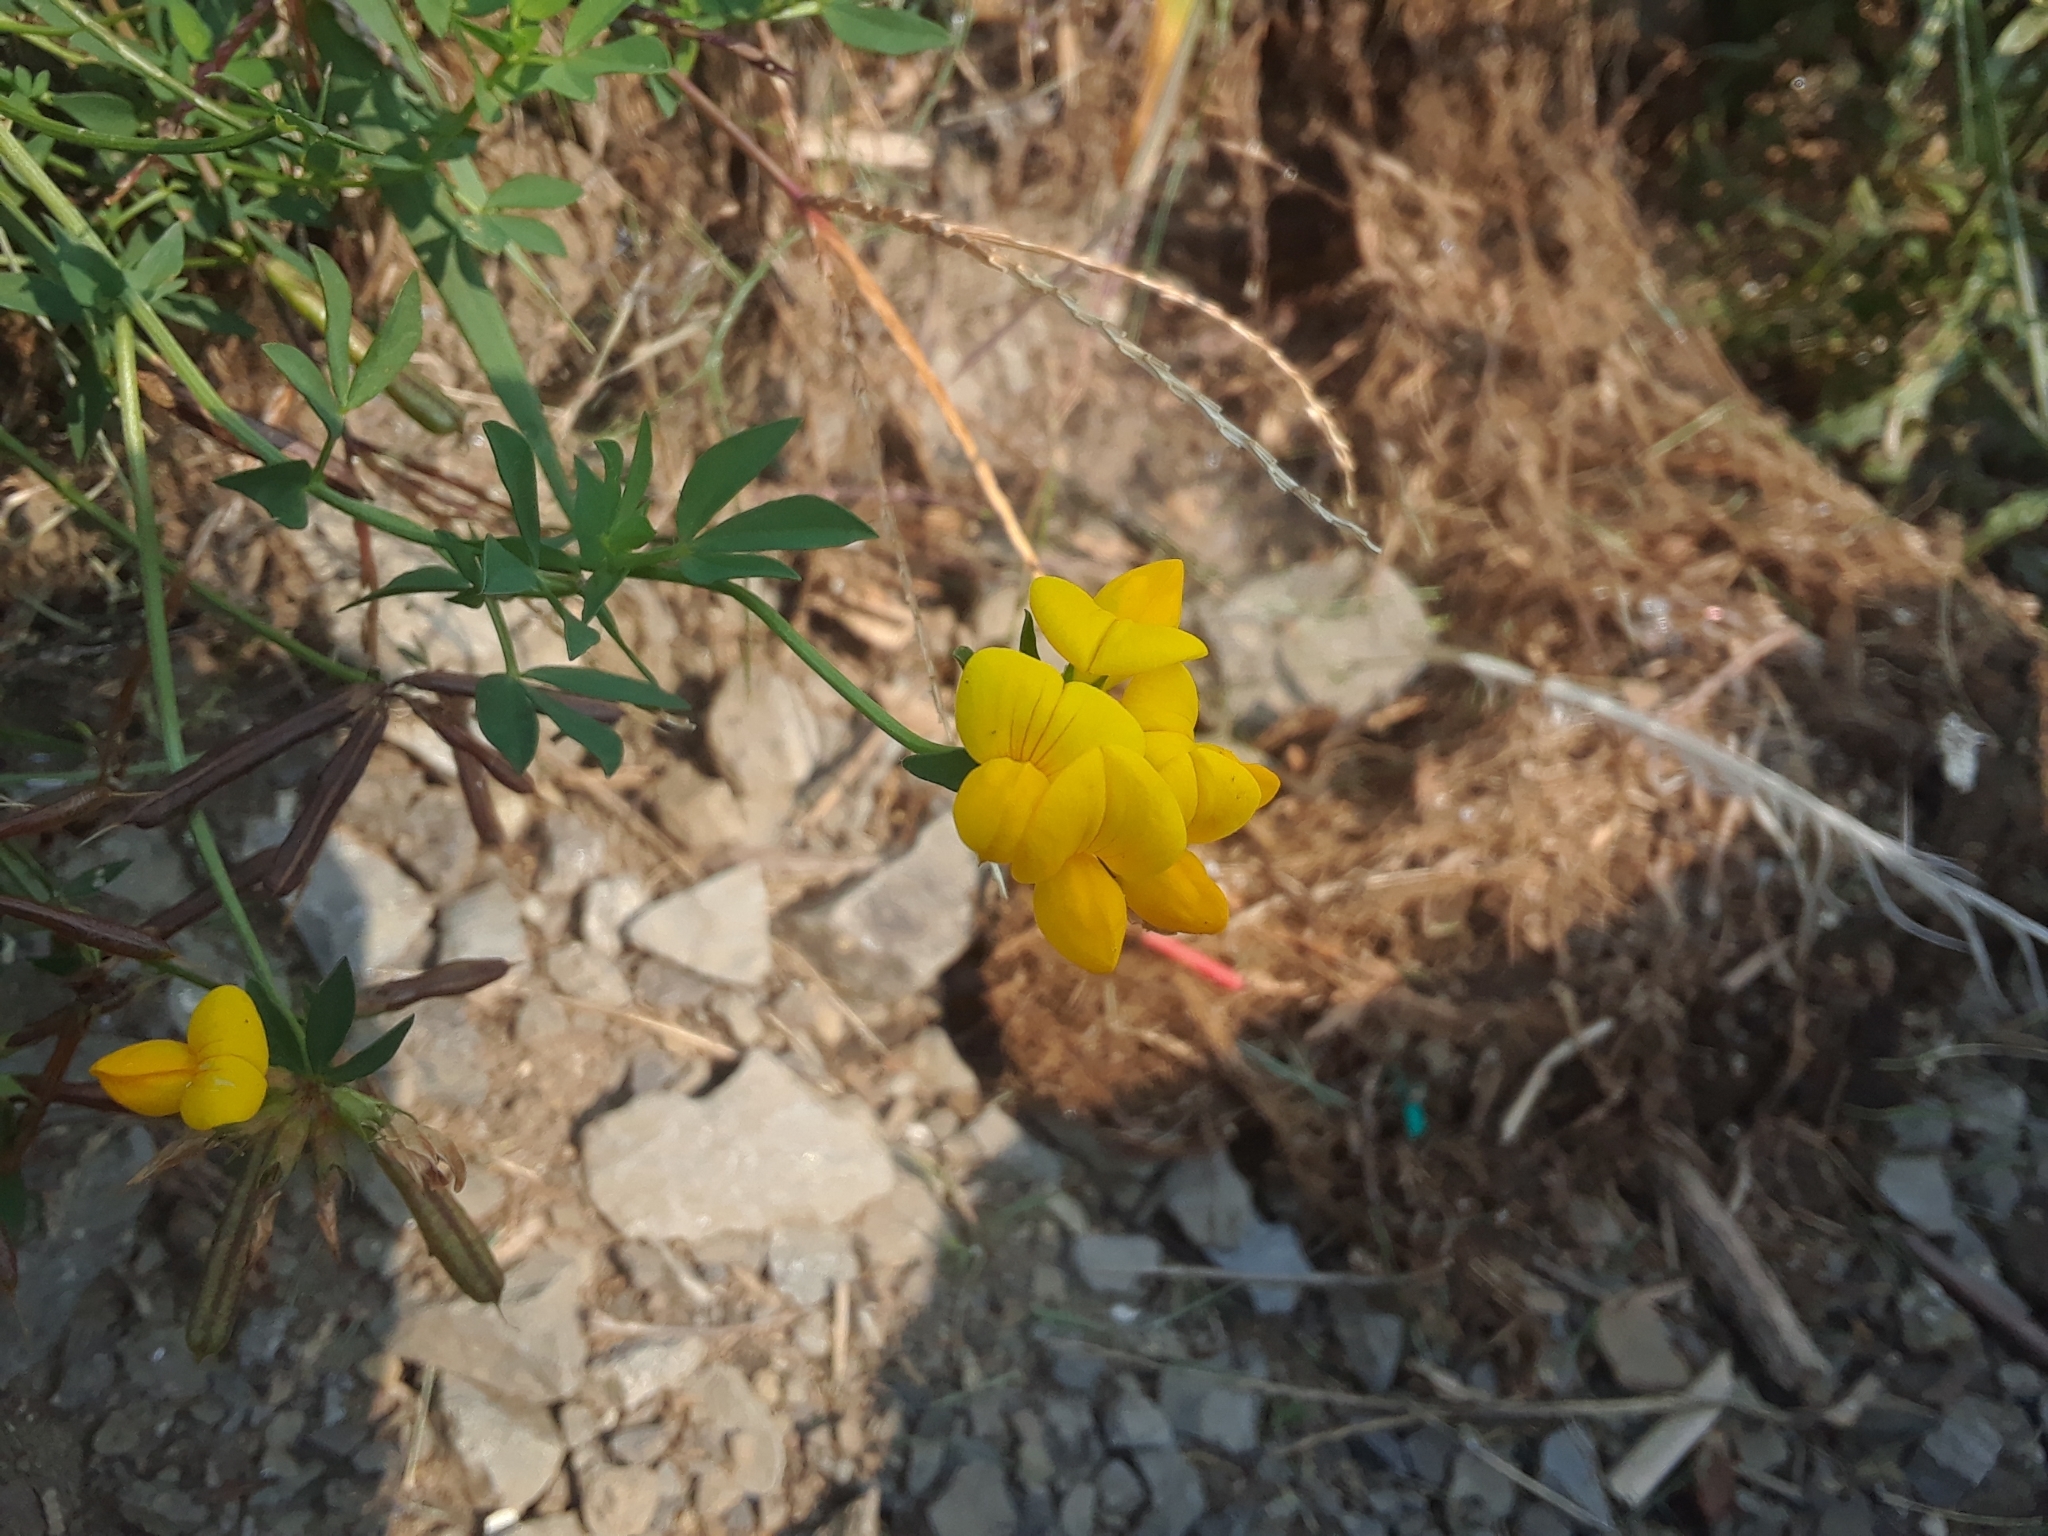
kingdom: Plantae
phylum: Tracheophyta
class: Magnoliopsida
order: Fabales
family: Fabaceae
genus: Lotus
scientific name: Lotus corniculatus
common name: Common bird's-foot-trefoil
